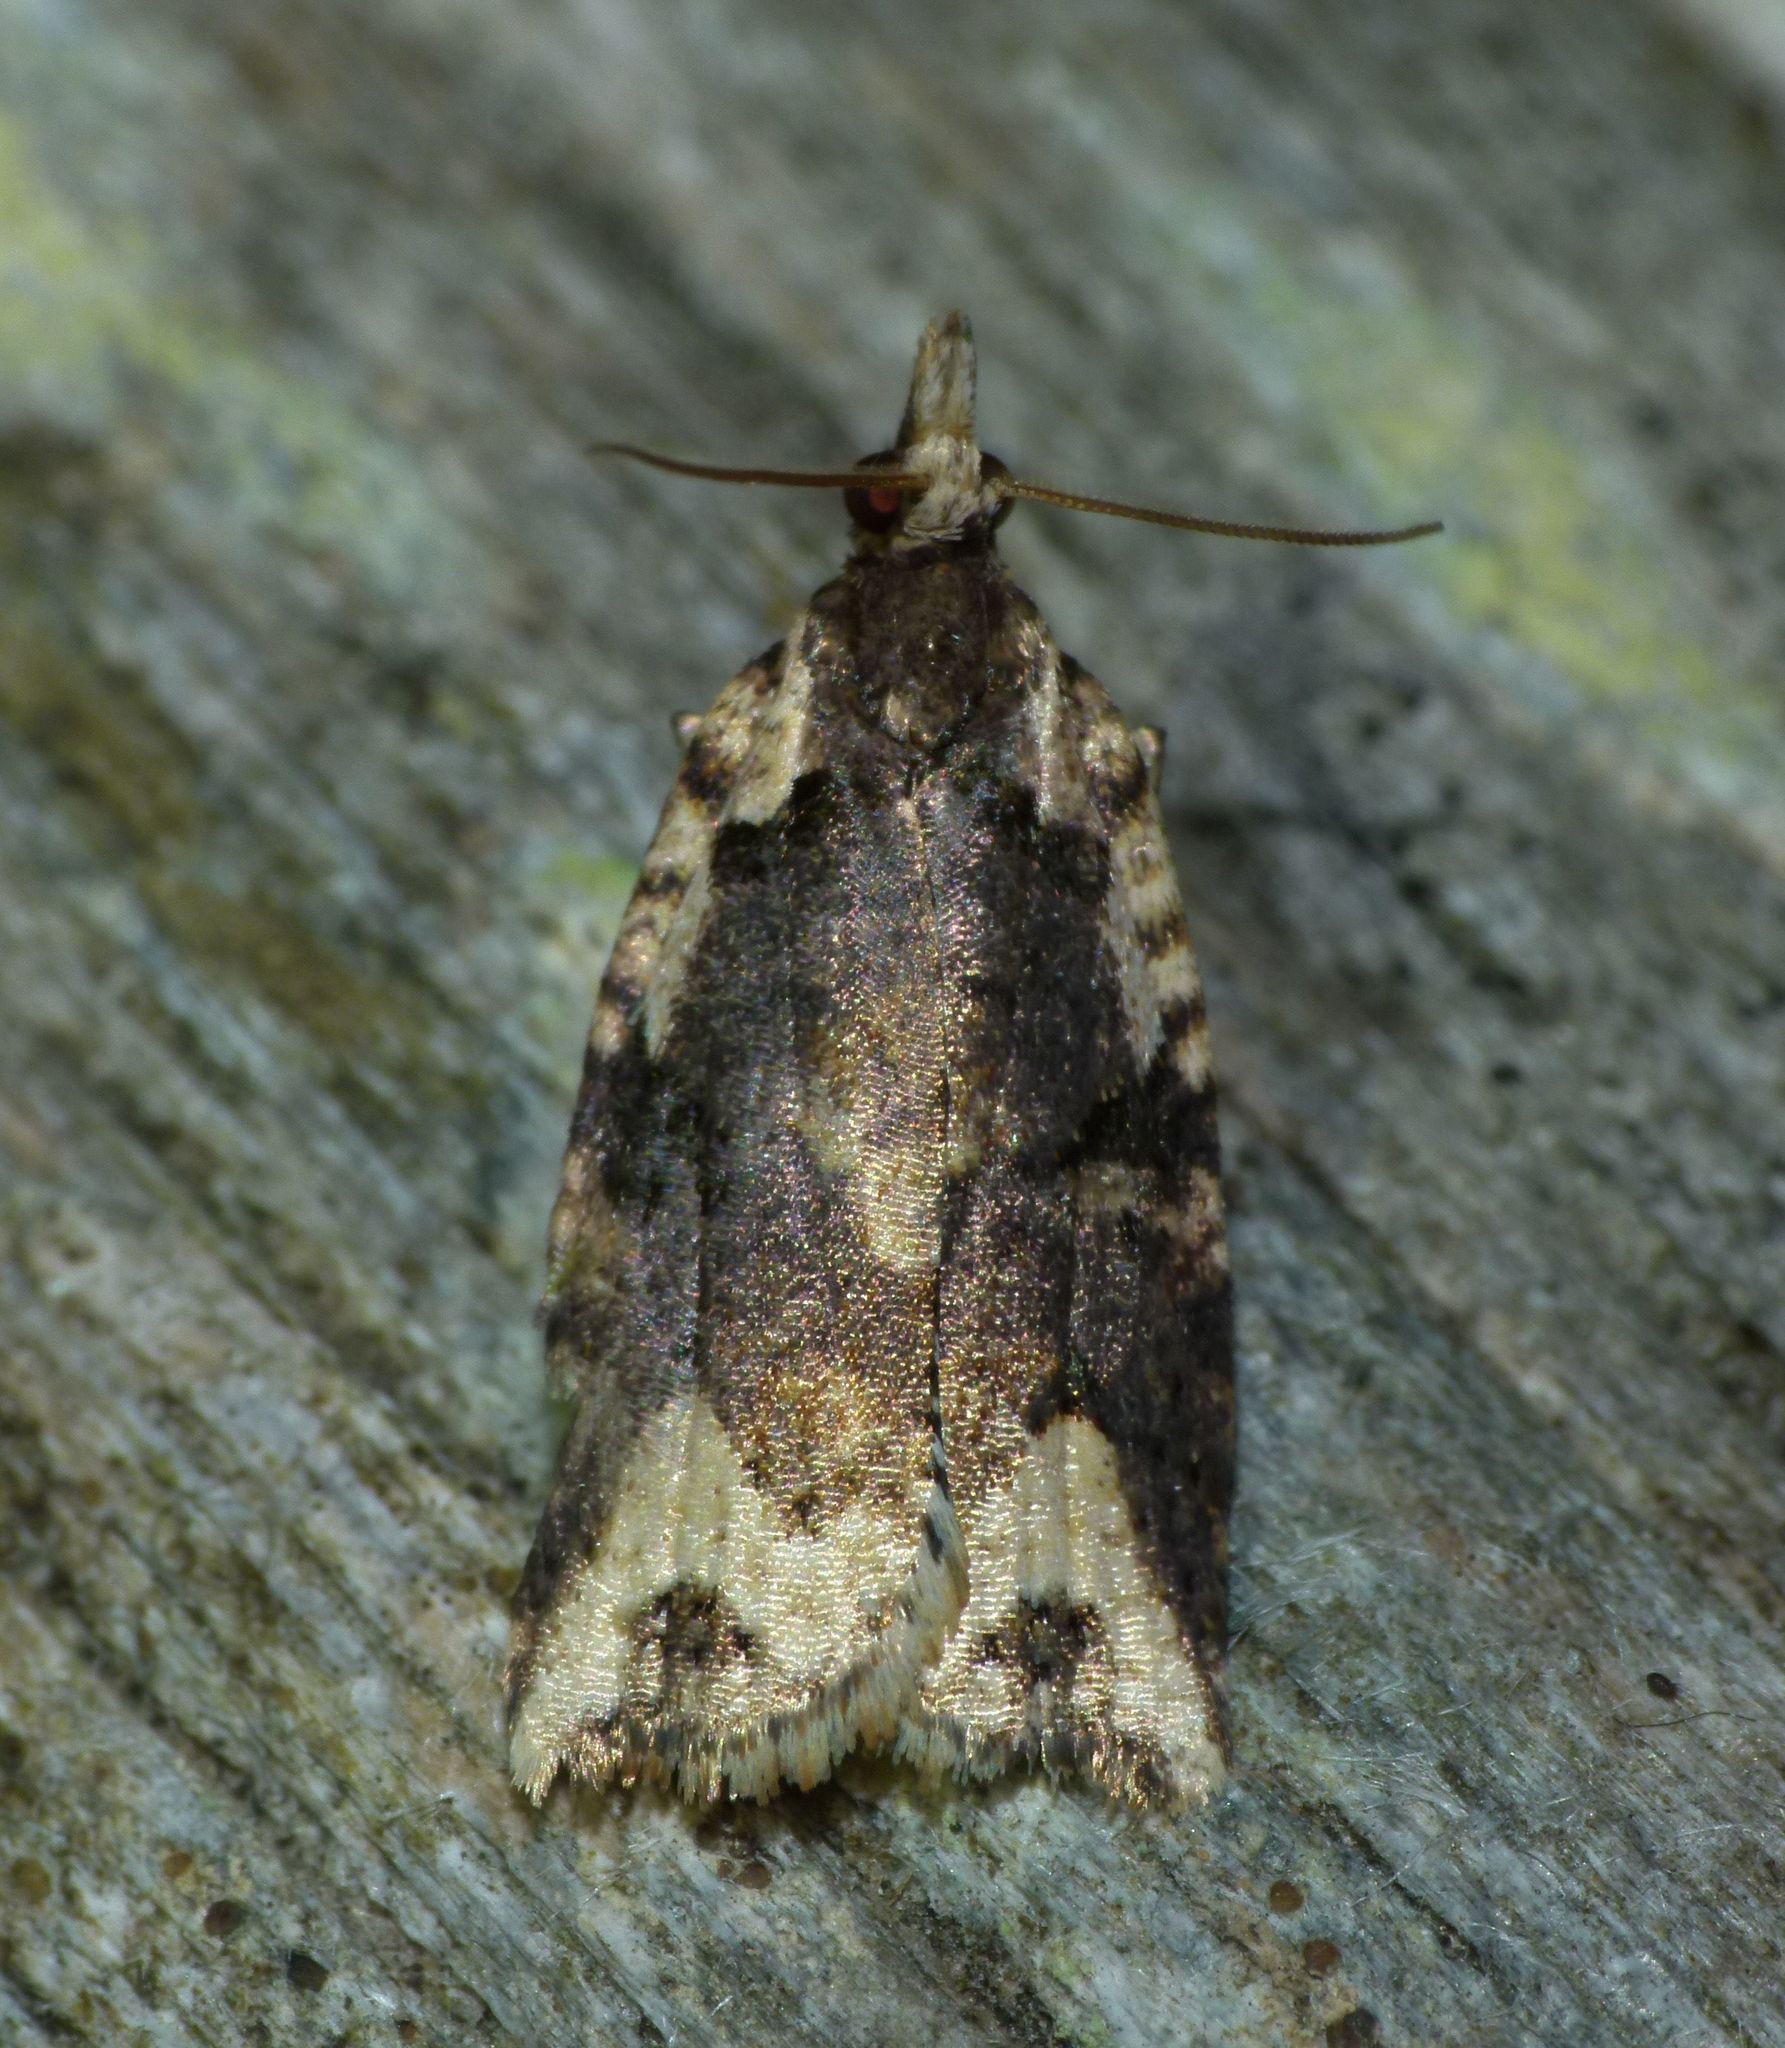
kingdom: Animalia
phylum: Arthropoda
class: Insecta
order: Lepidoptera
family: Tortricidae
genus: Ctenopseustis
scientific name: Ctenopseustis obliquana
